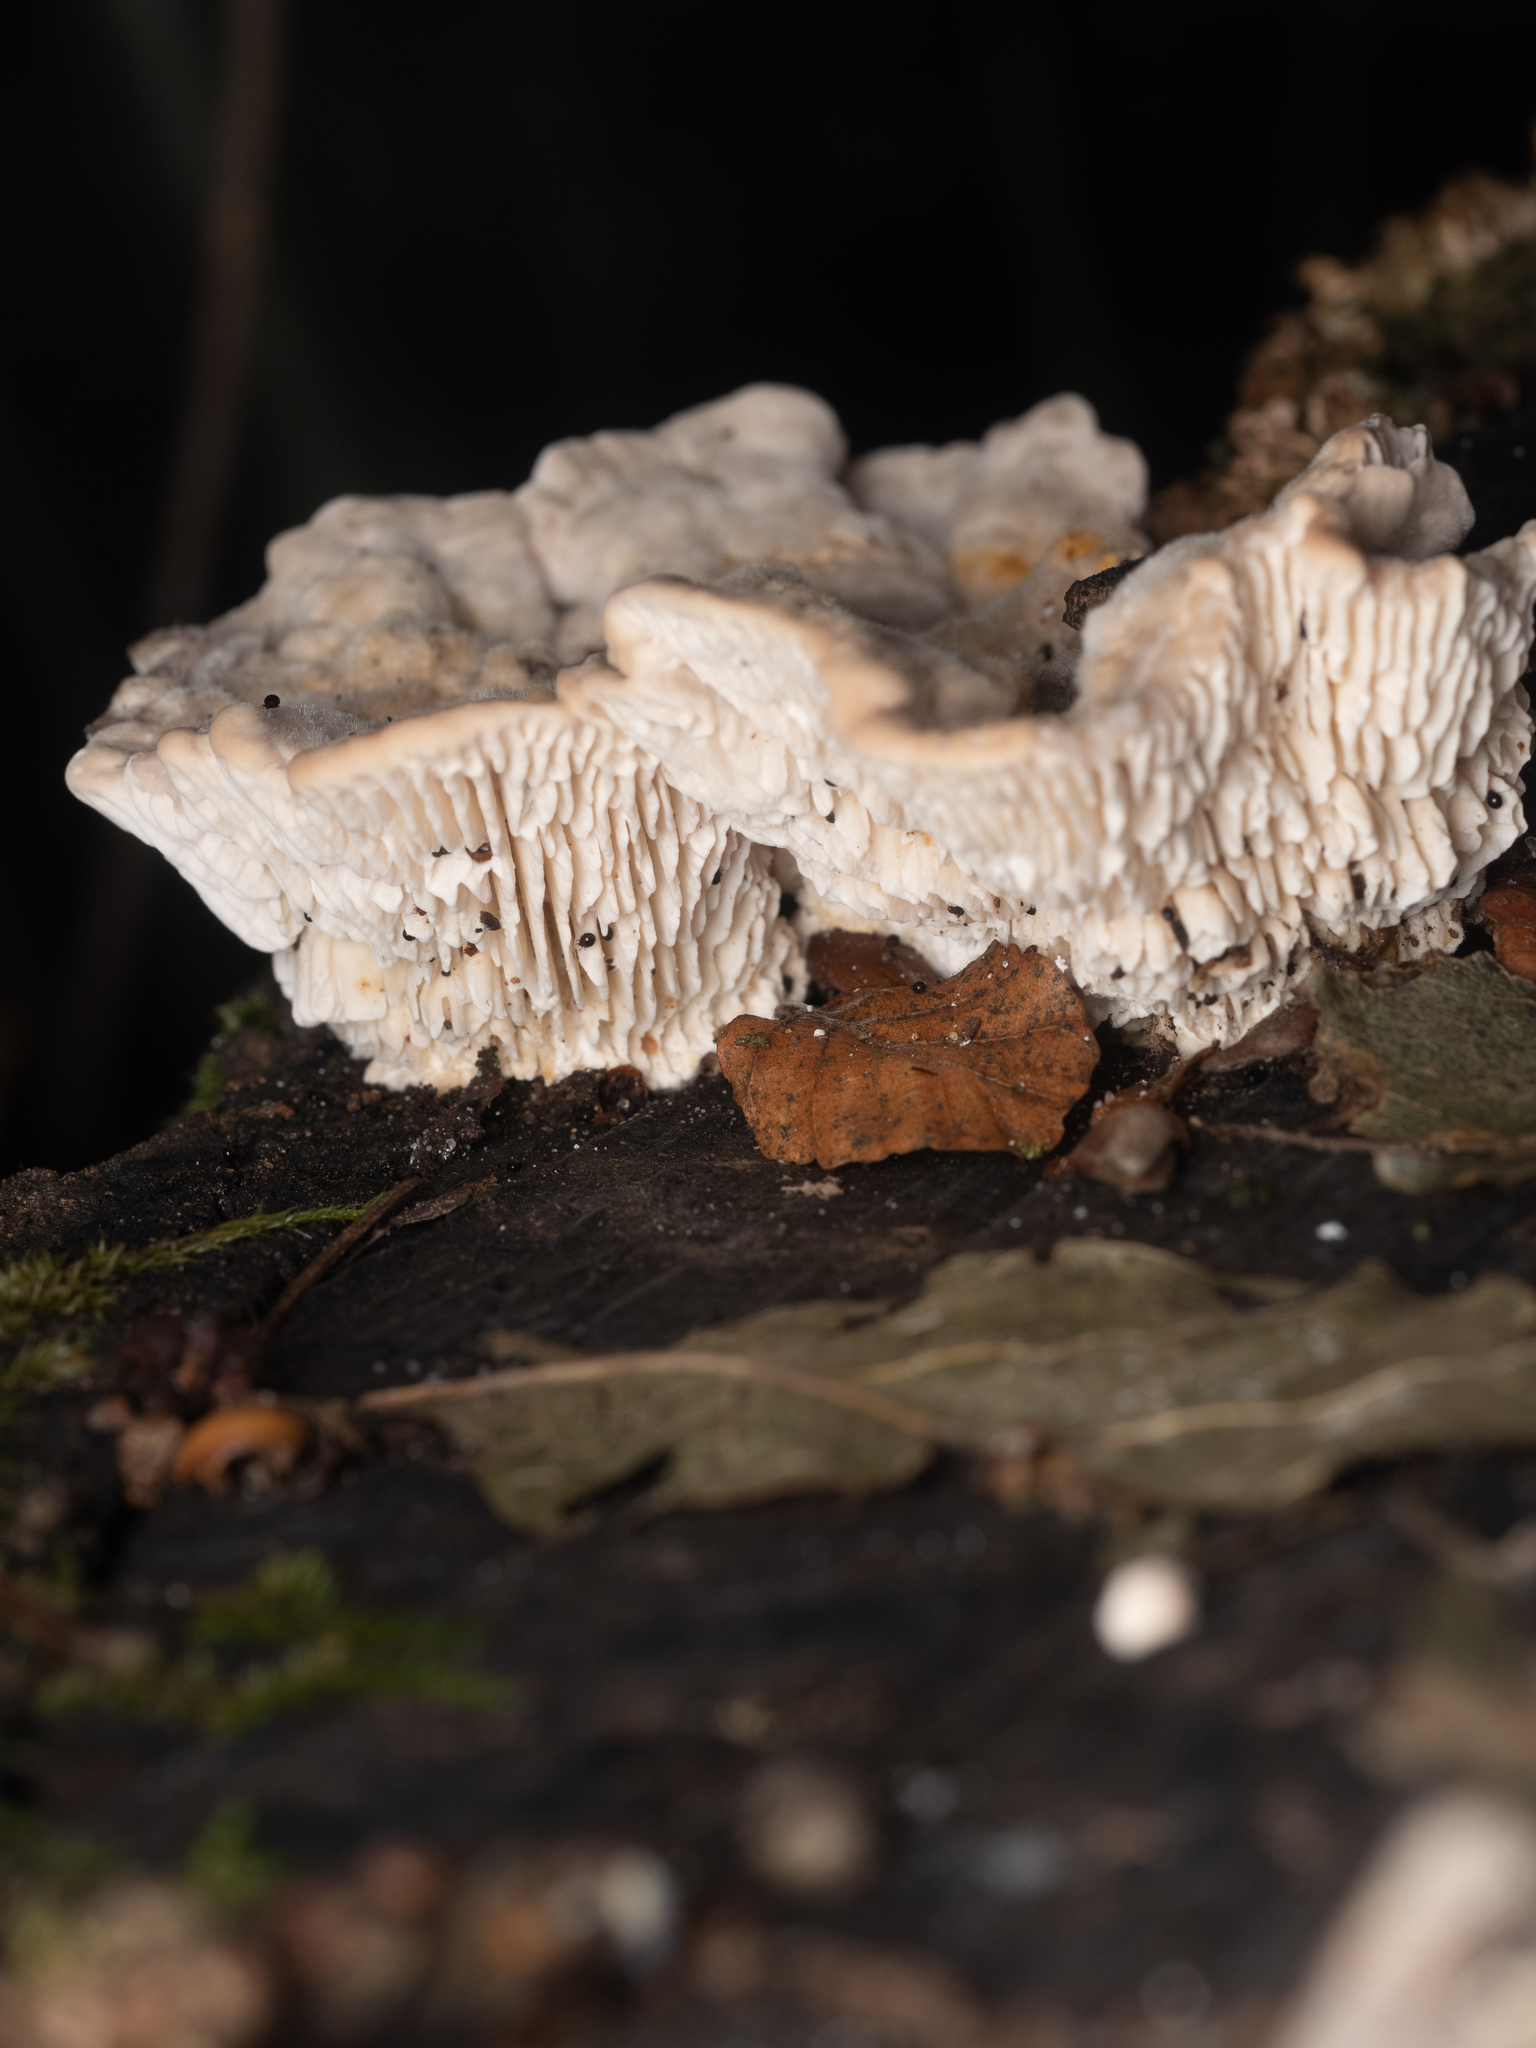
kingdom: Fungi
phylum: Basidiomycota
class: Agaricomycetes
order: Polyporales
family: Fomitopsidaceae
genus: Fomitopsis
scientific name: Fomitopsis
